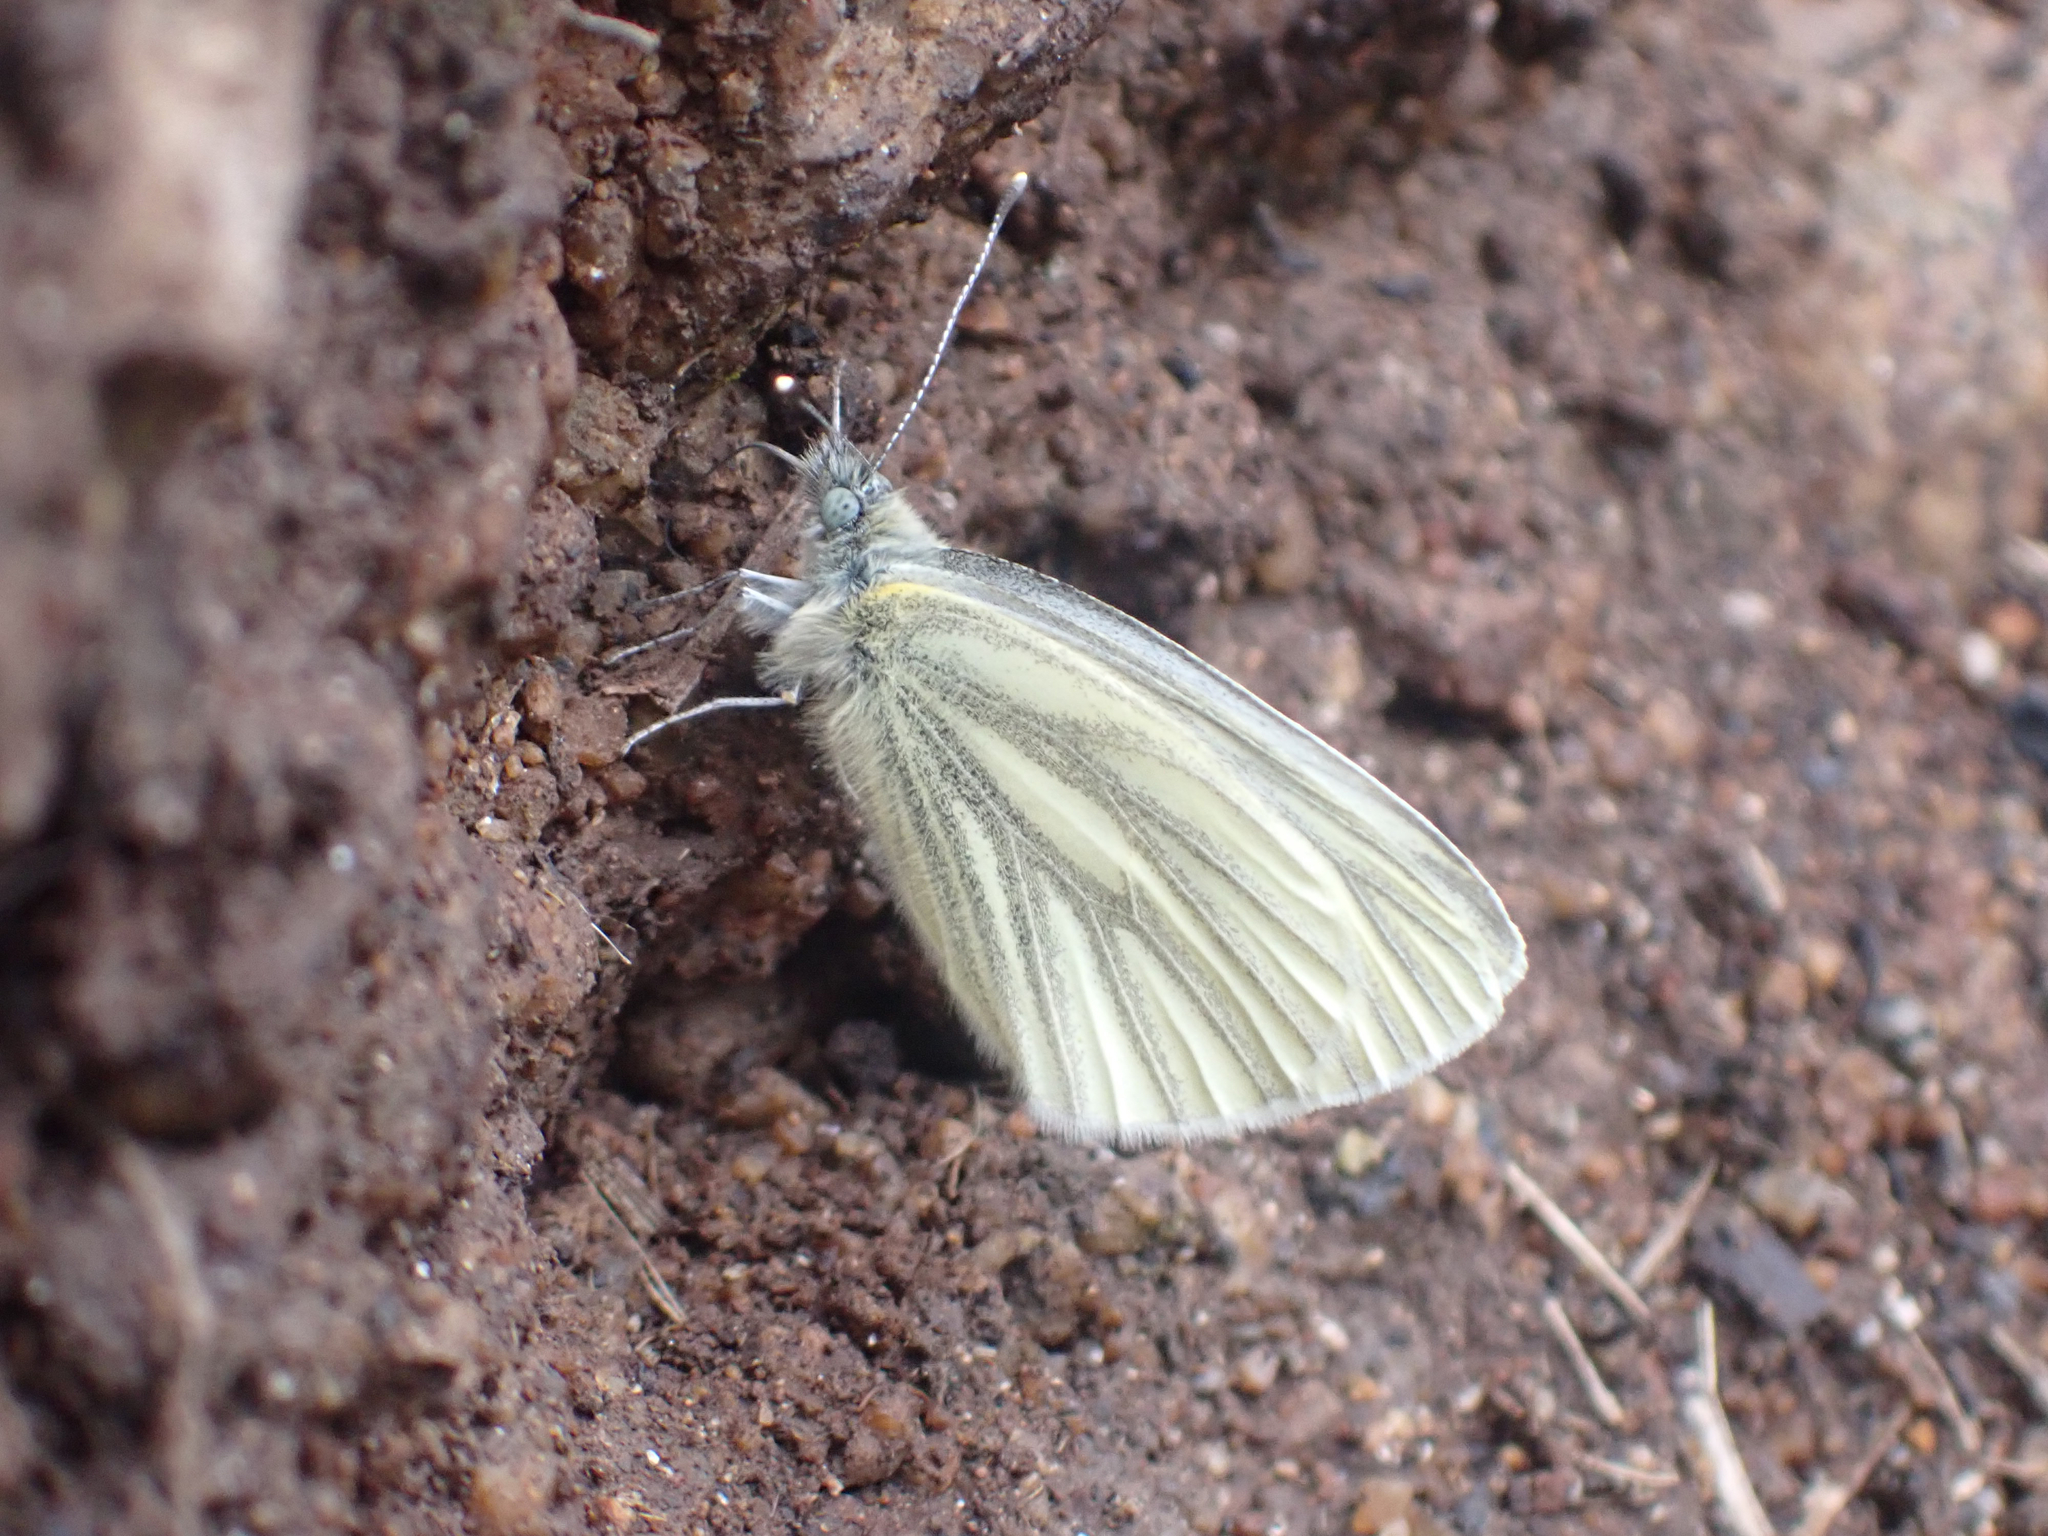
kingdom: Animalia
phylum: Arthropoda
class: Insecta
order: Lepidoptera
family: Pieridae
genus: Pieris
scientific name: Pieris marginalis
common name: Margined white
